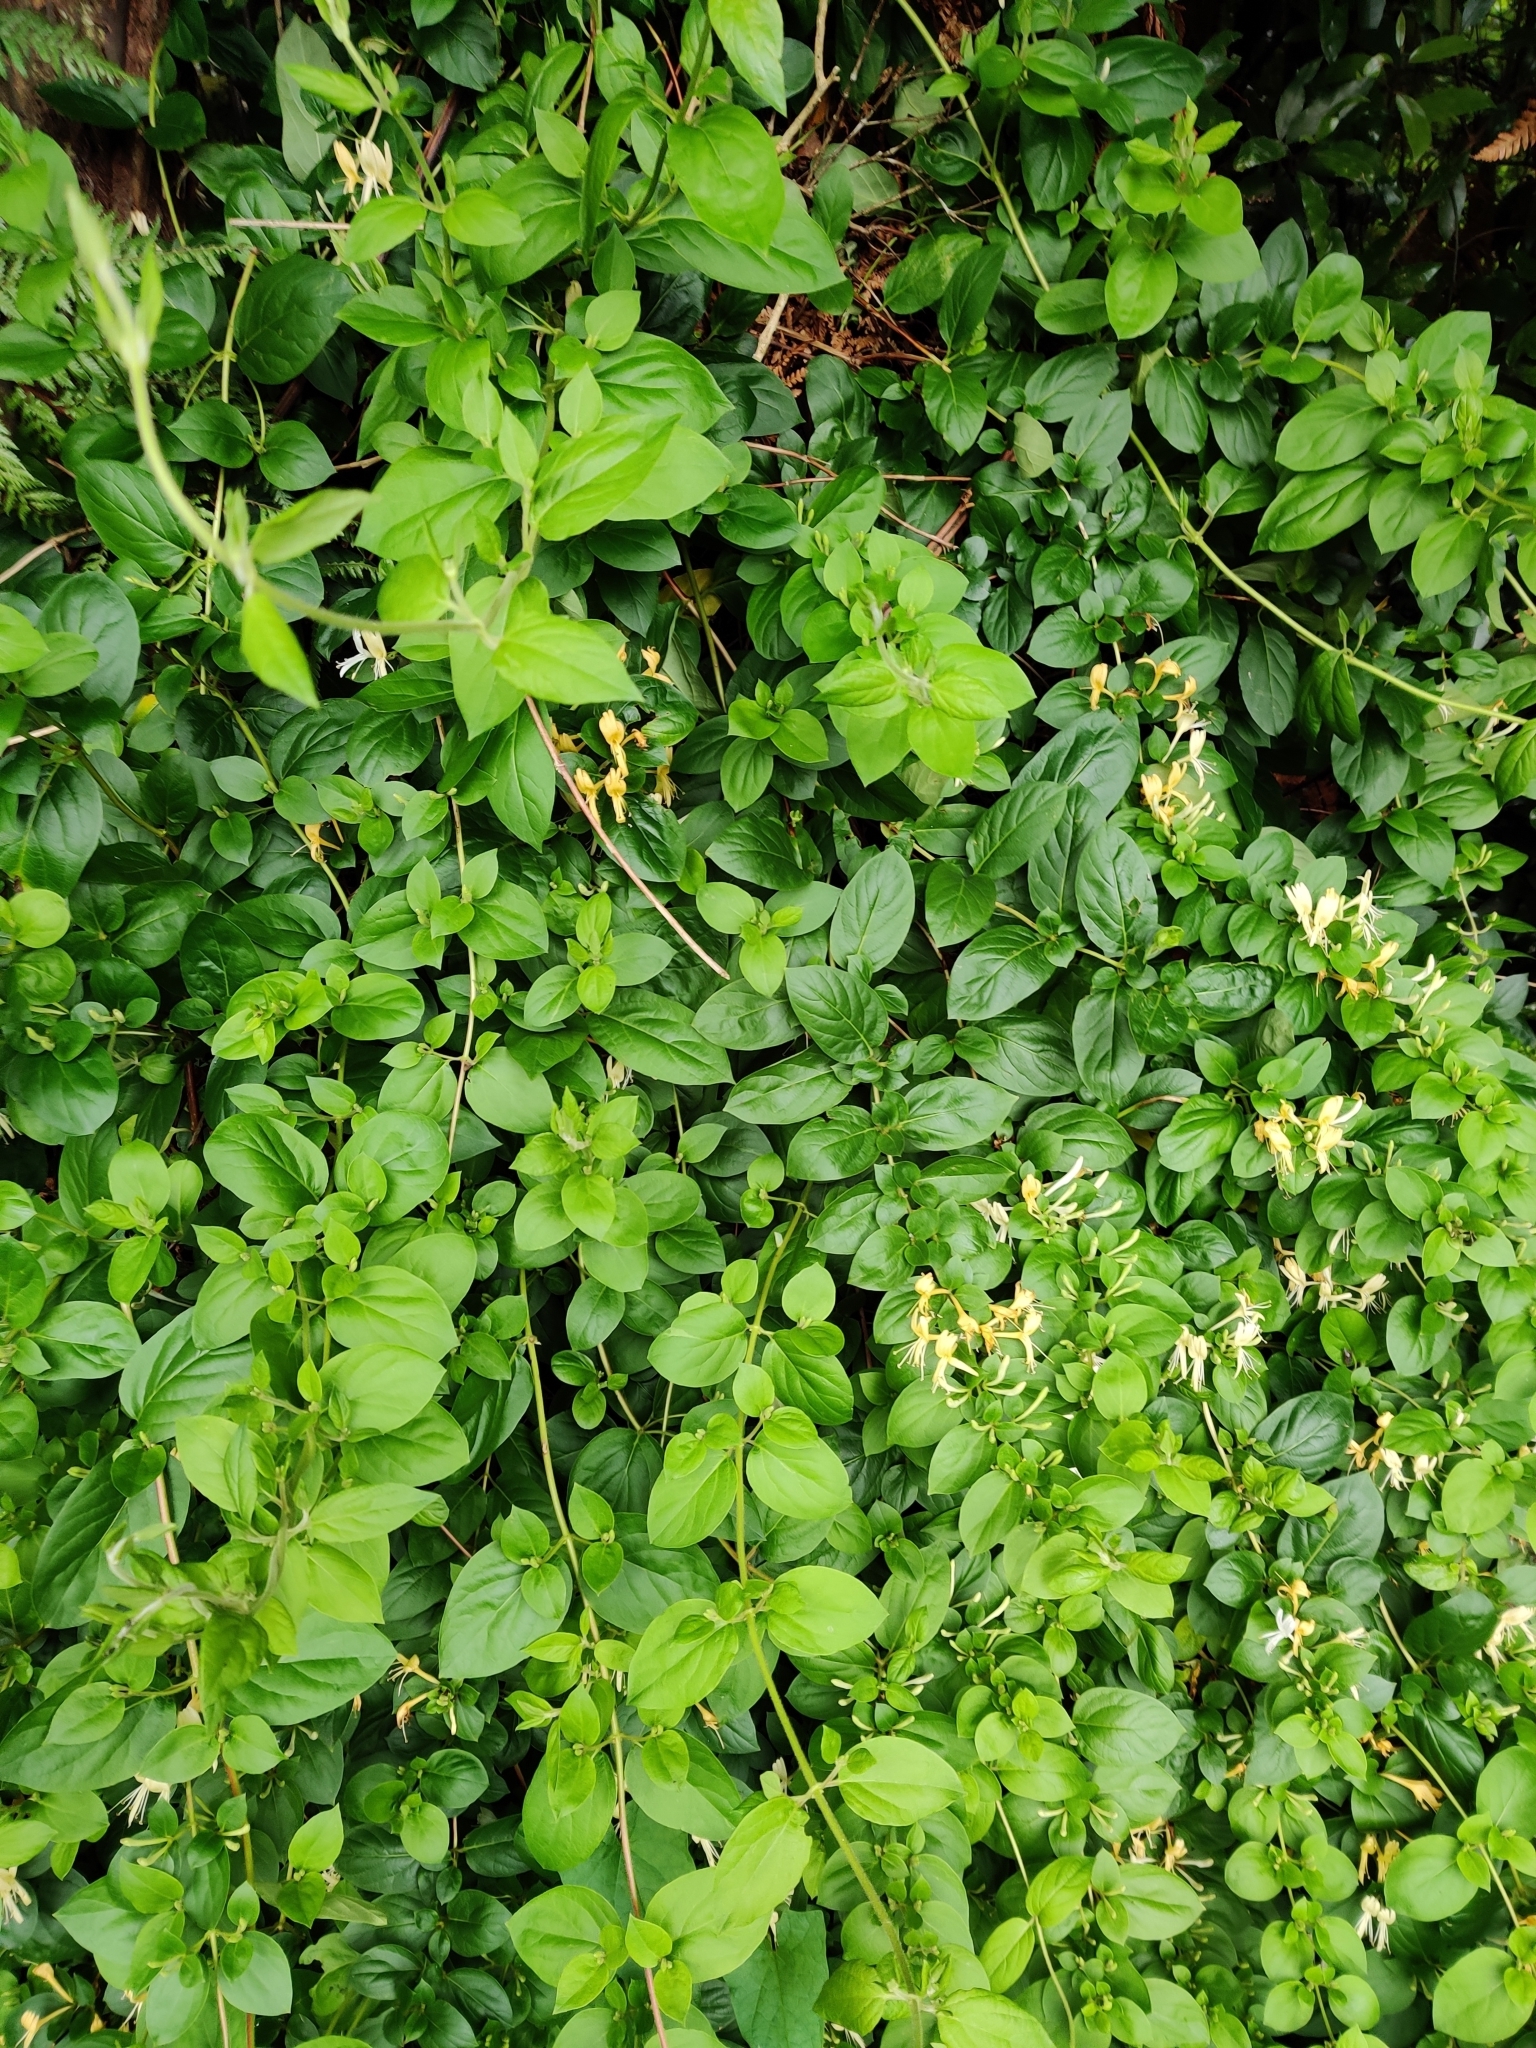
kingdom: Plantae
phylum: Tracheophyta
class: Magnoliopsida
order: Dipsacales
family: Caprifoliaceae
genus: Lonicera
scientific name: Lonicera japonica
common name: Japanese honeysuckle
